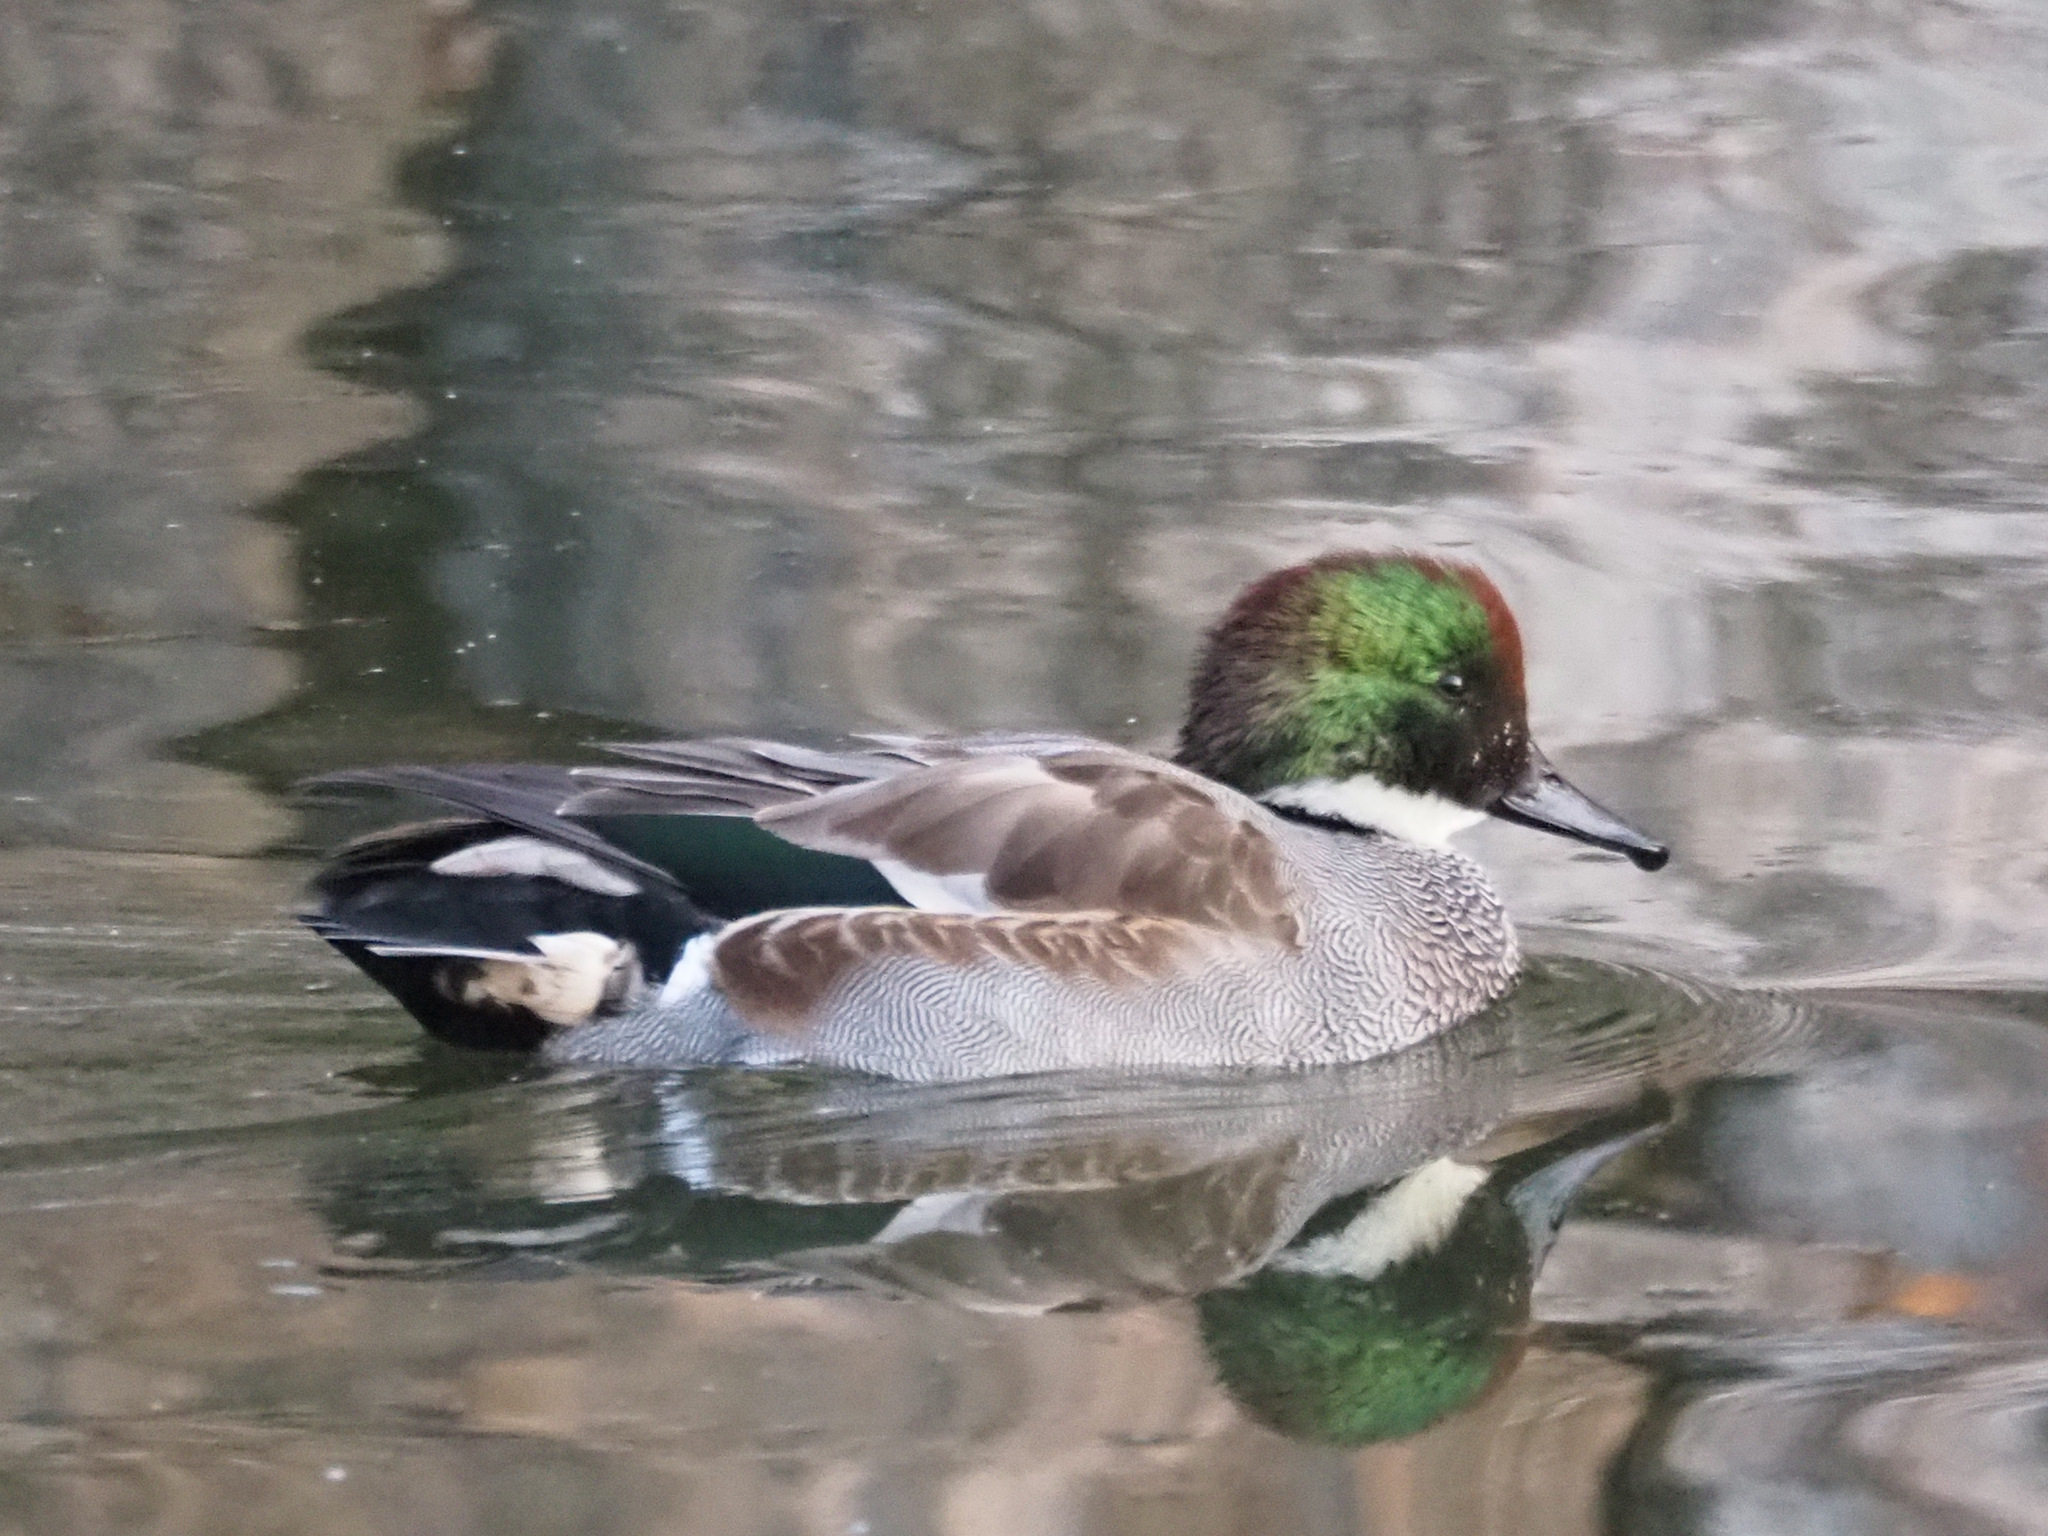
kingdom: Animalia
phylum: Chordata
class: Aves
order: Anseriformes
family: Anatidae
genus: Mareca
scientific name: Mareca falcata
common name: Falcated duck
